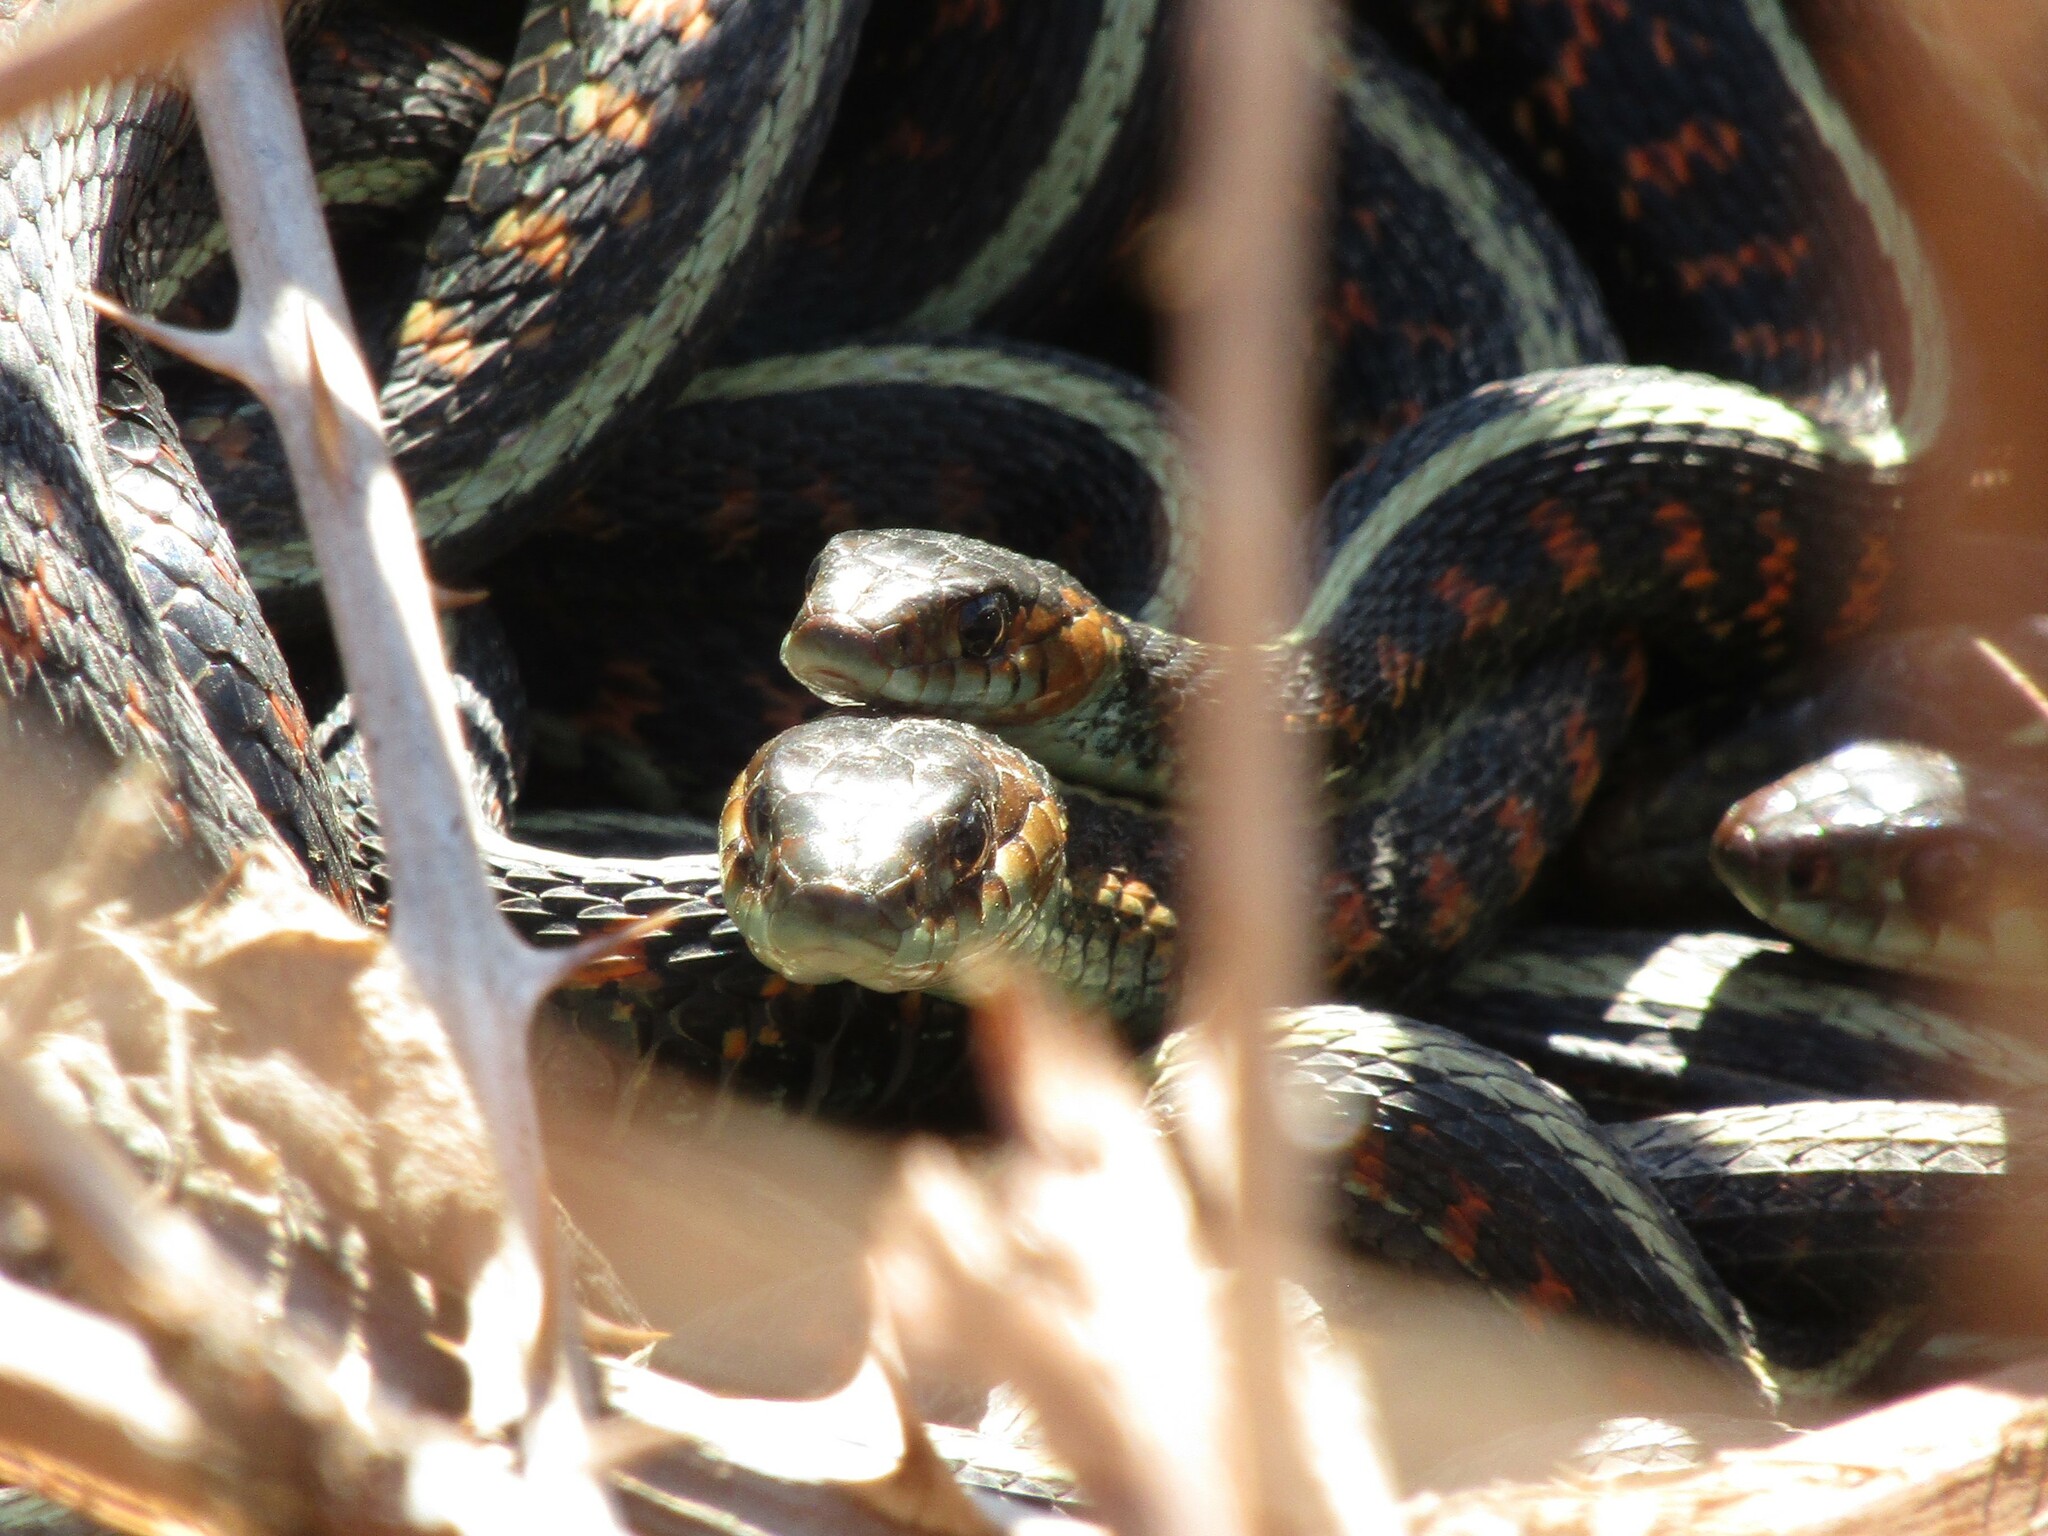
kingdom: Animalia
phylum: Chordata
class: Squamata
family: Colubridae
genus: Thamnophis
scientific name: Thamnophis sirtalis
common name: Common garter snake
